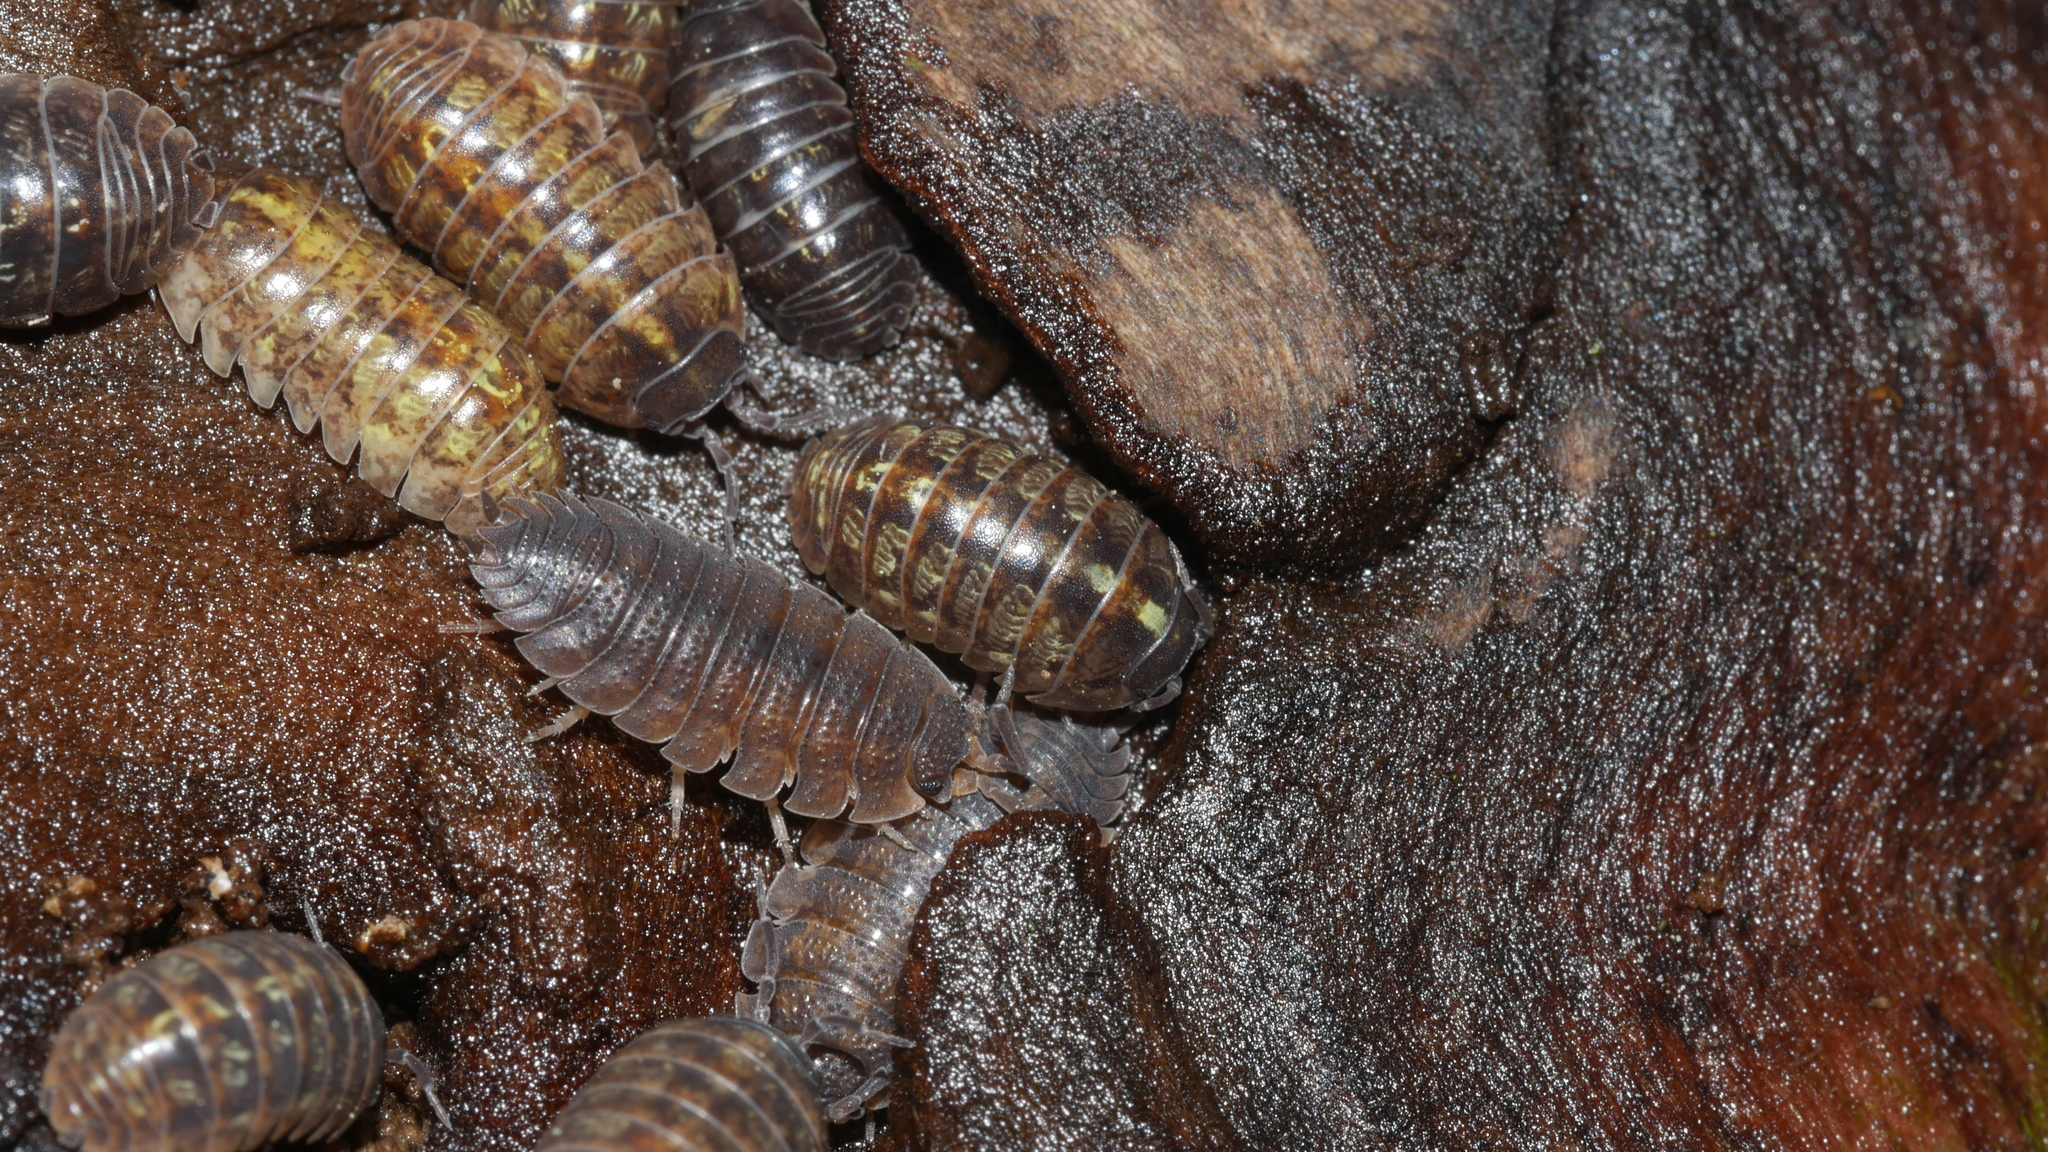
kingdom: Animalia
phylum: Arthropoda
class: Malacostraca
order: Isopoda
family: Porcellionidae
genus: Porcellio
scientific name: Porcellio scaber
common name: Common rough woodlouse
